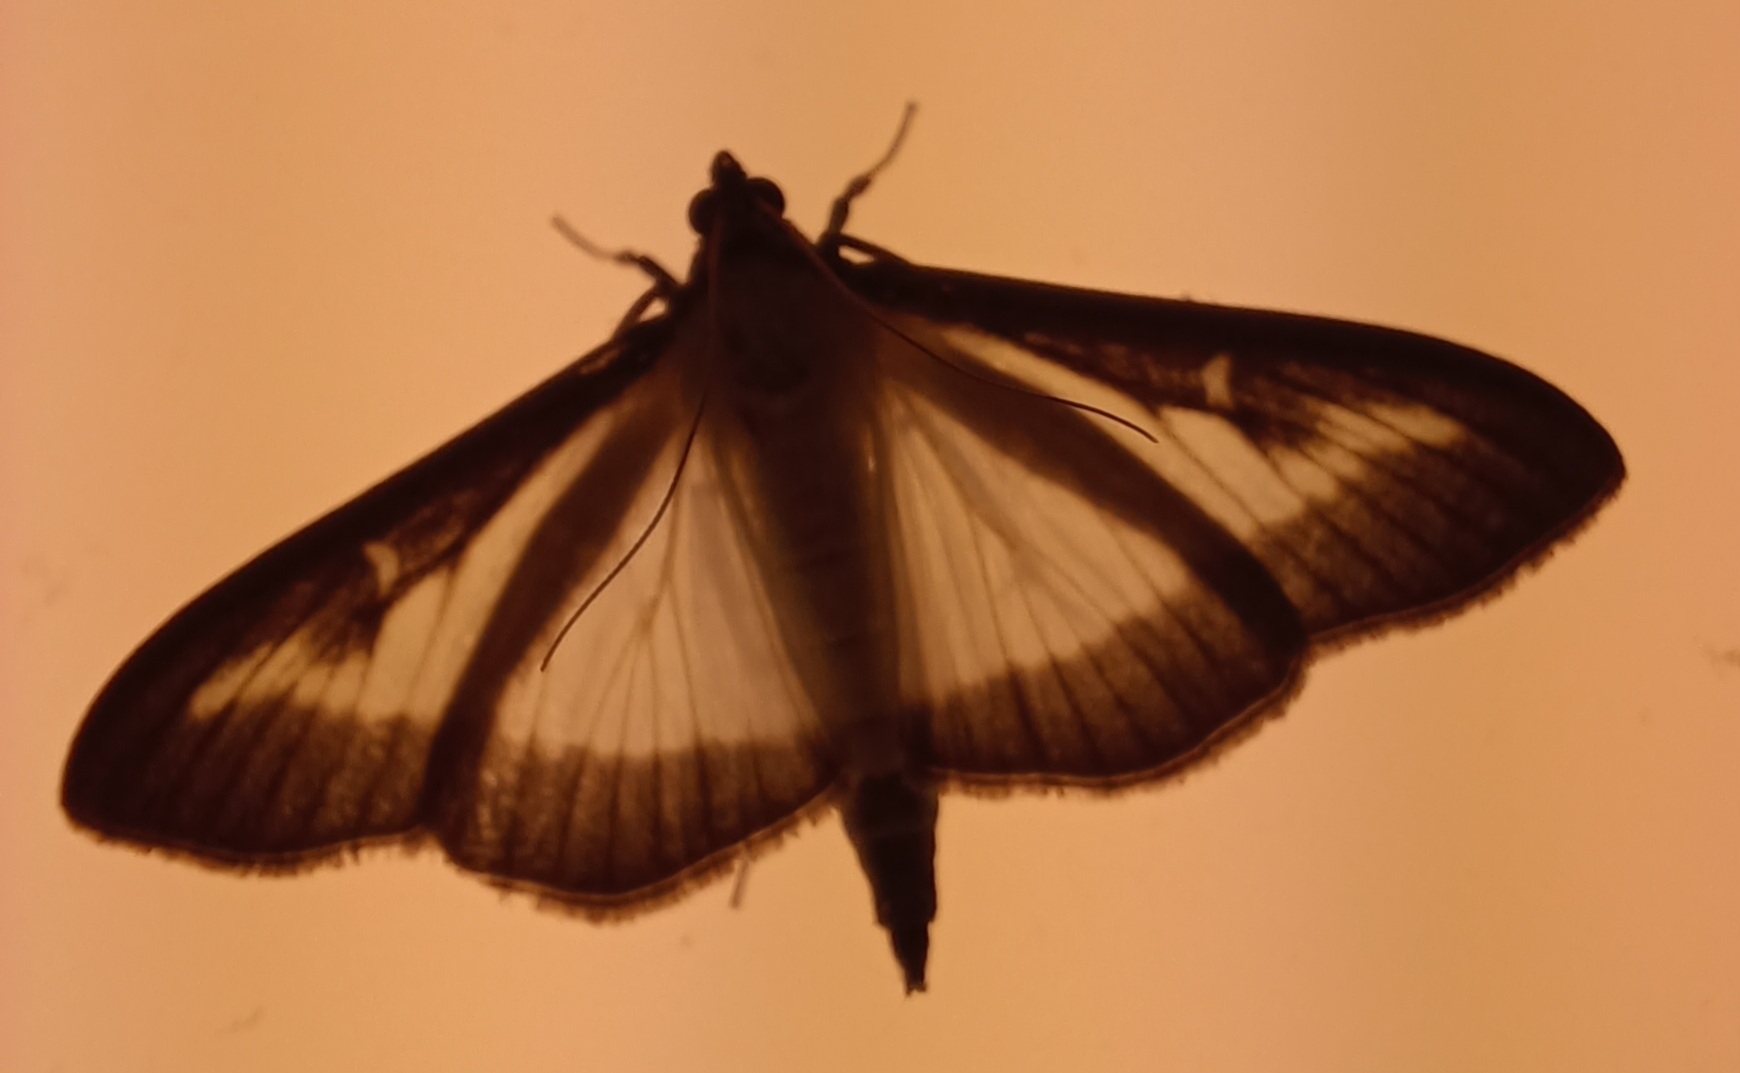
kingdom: Animalia
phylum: Arthropoda
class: Insecta
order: Lepidoptera
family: Crambidae
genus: Cydalima
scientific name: Cydalima perspectalis
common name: Box tree moth
